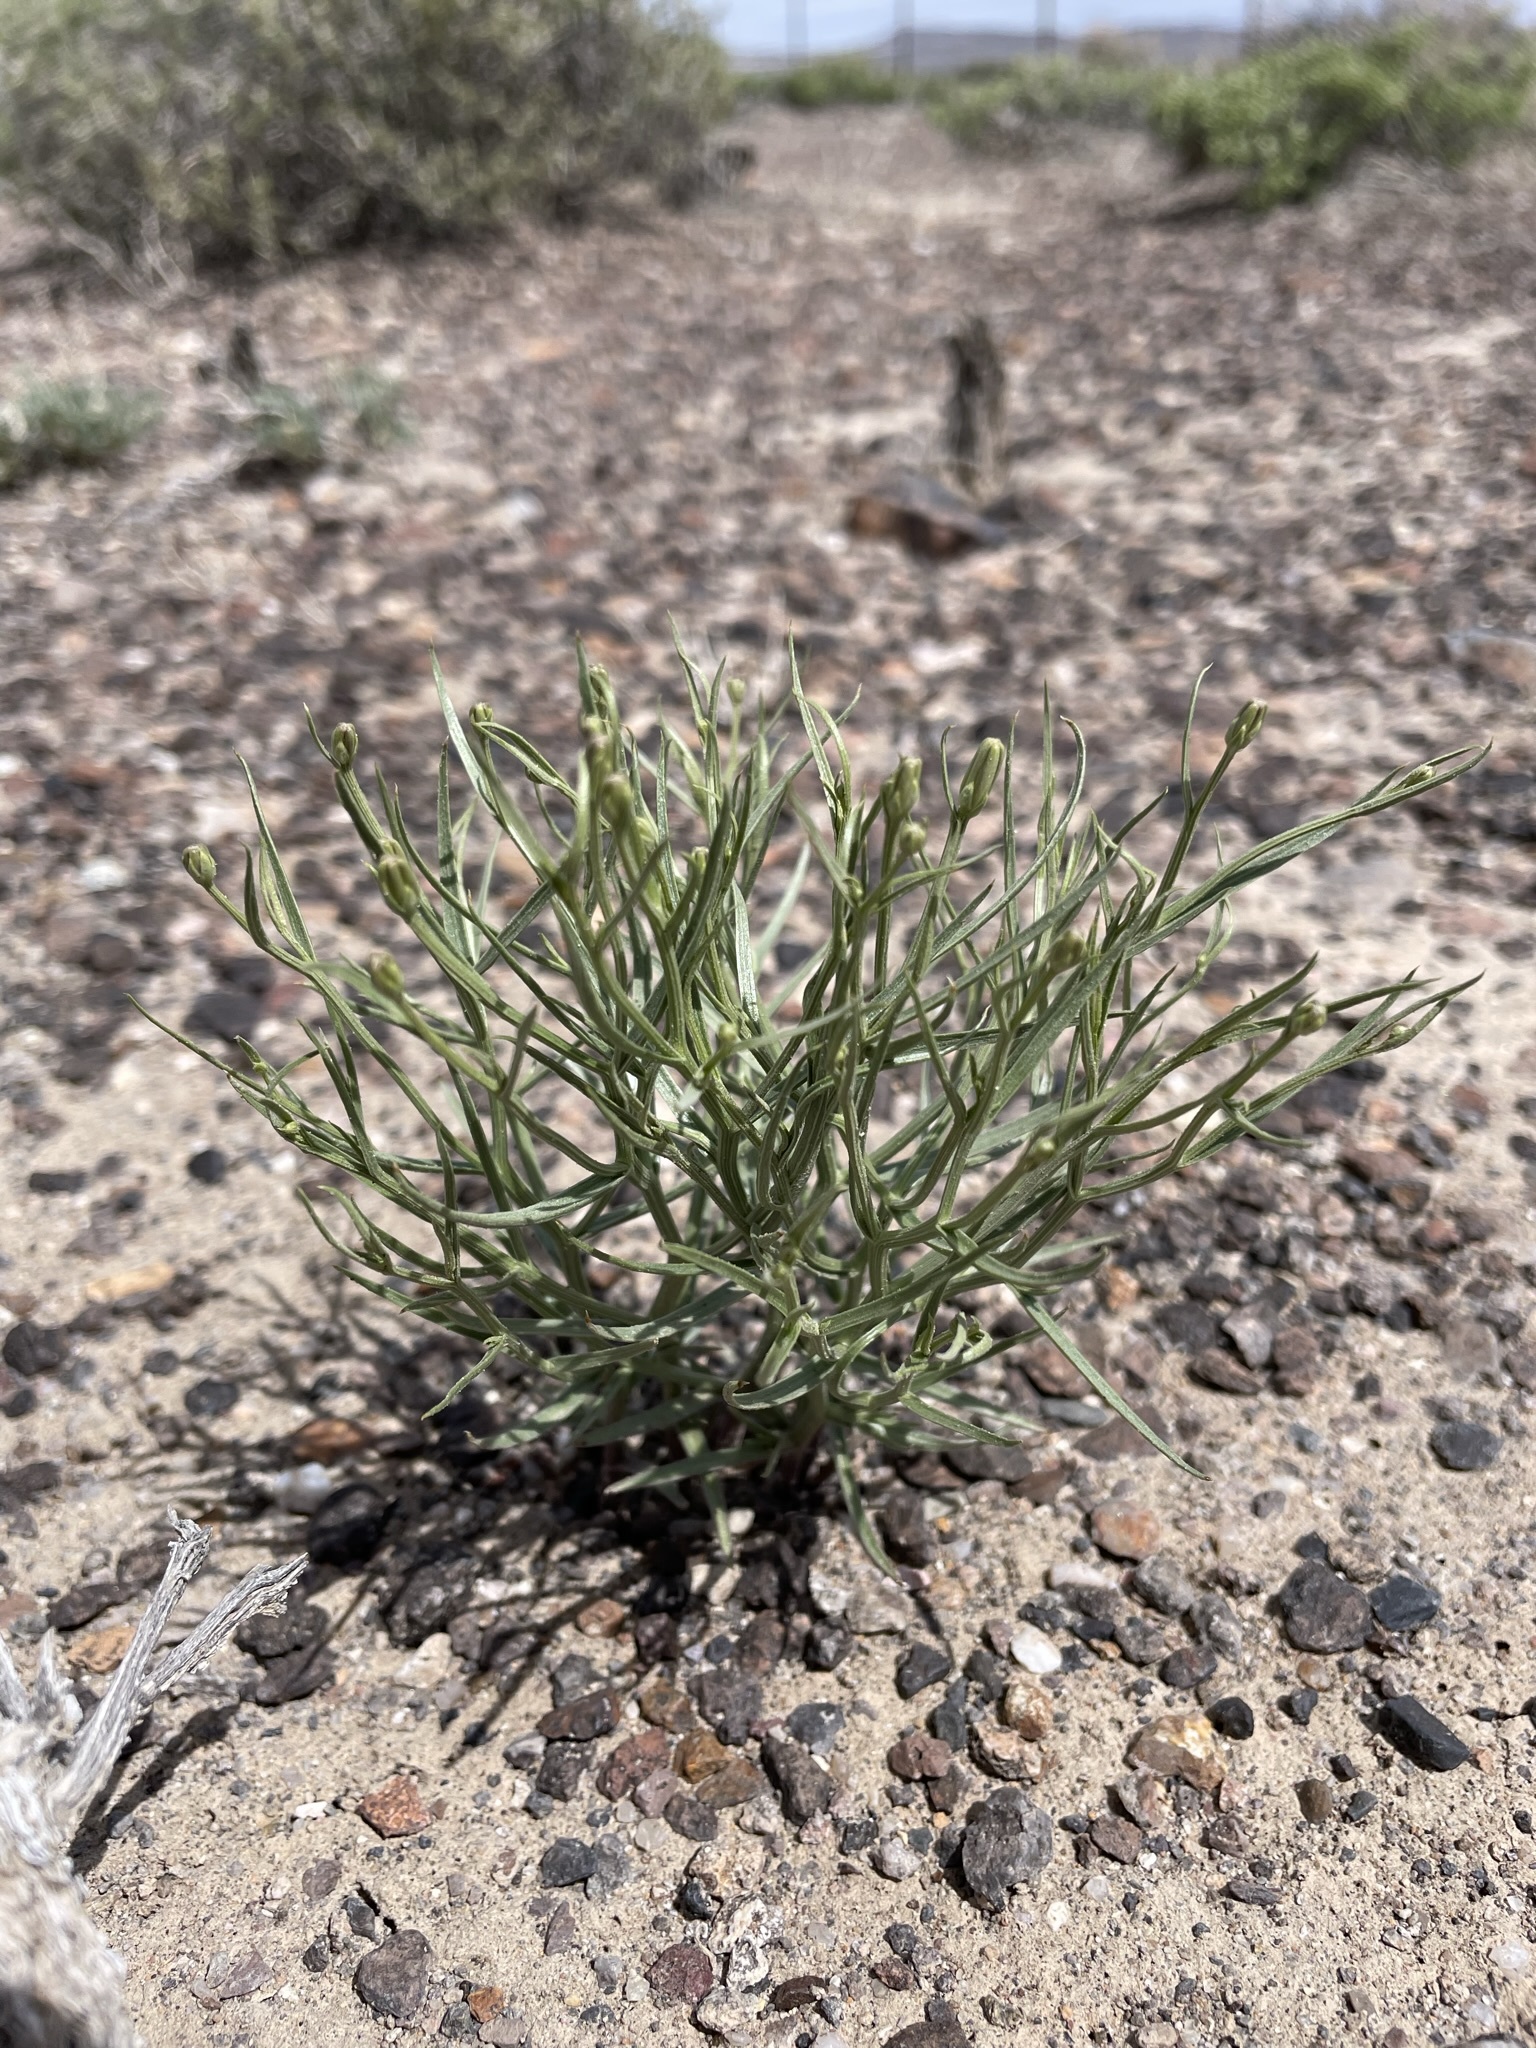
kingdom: Plantae
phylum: Tracheophyta
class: Magnoliopsida
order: Asterales
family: Asteraceae
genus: Chaetadelpha
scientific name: Chaetadelpha wheeleri
